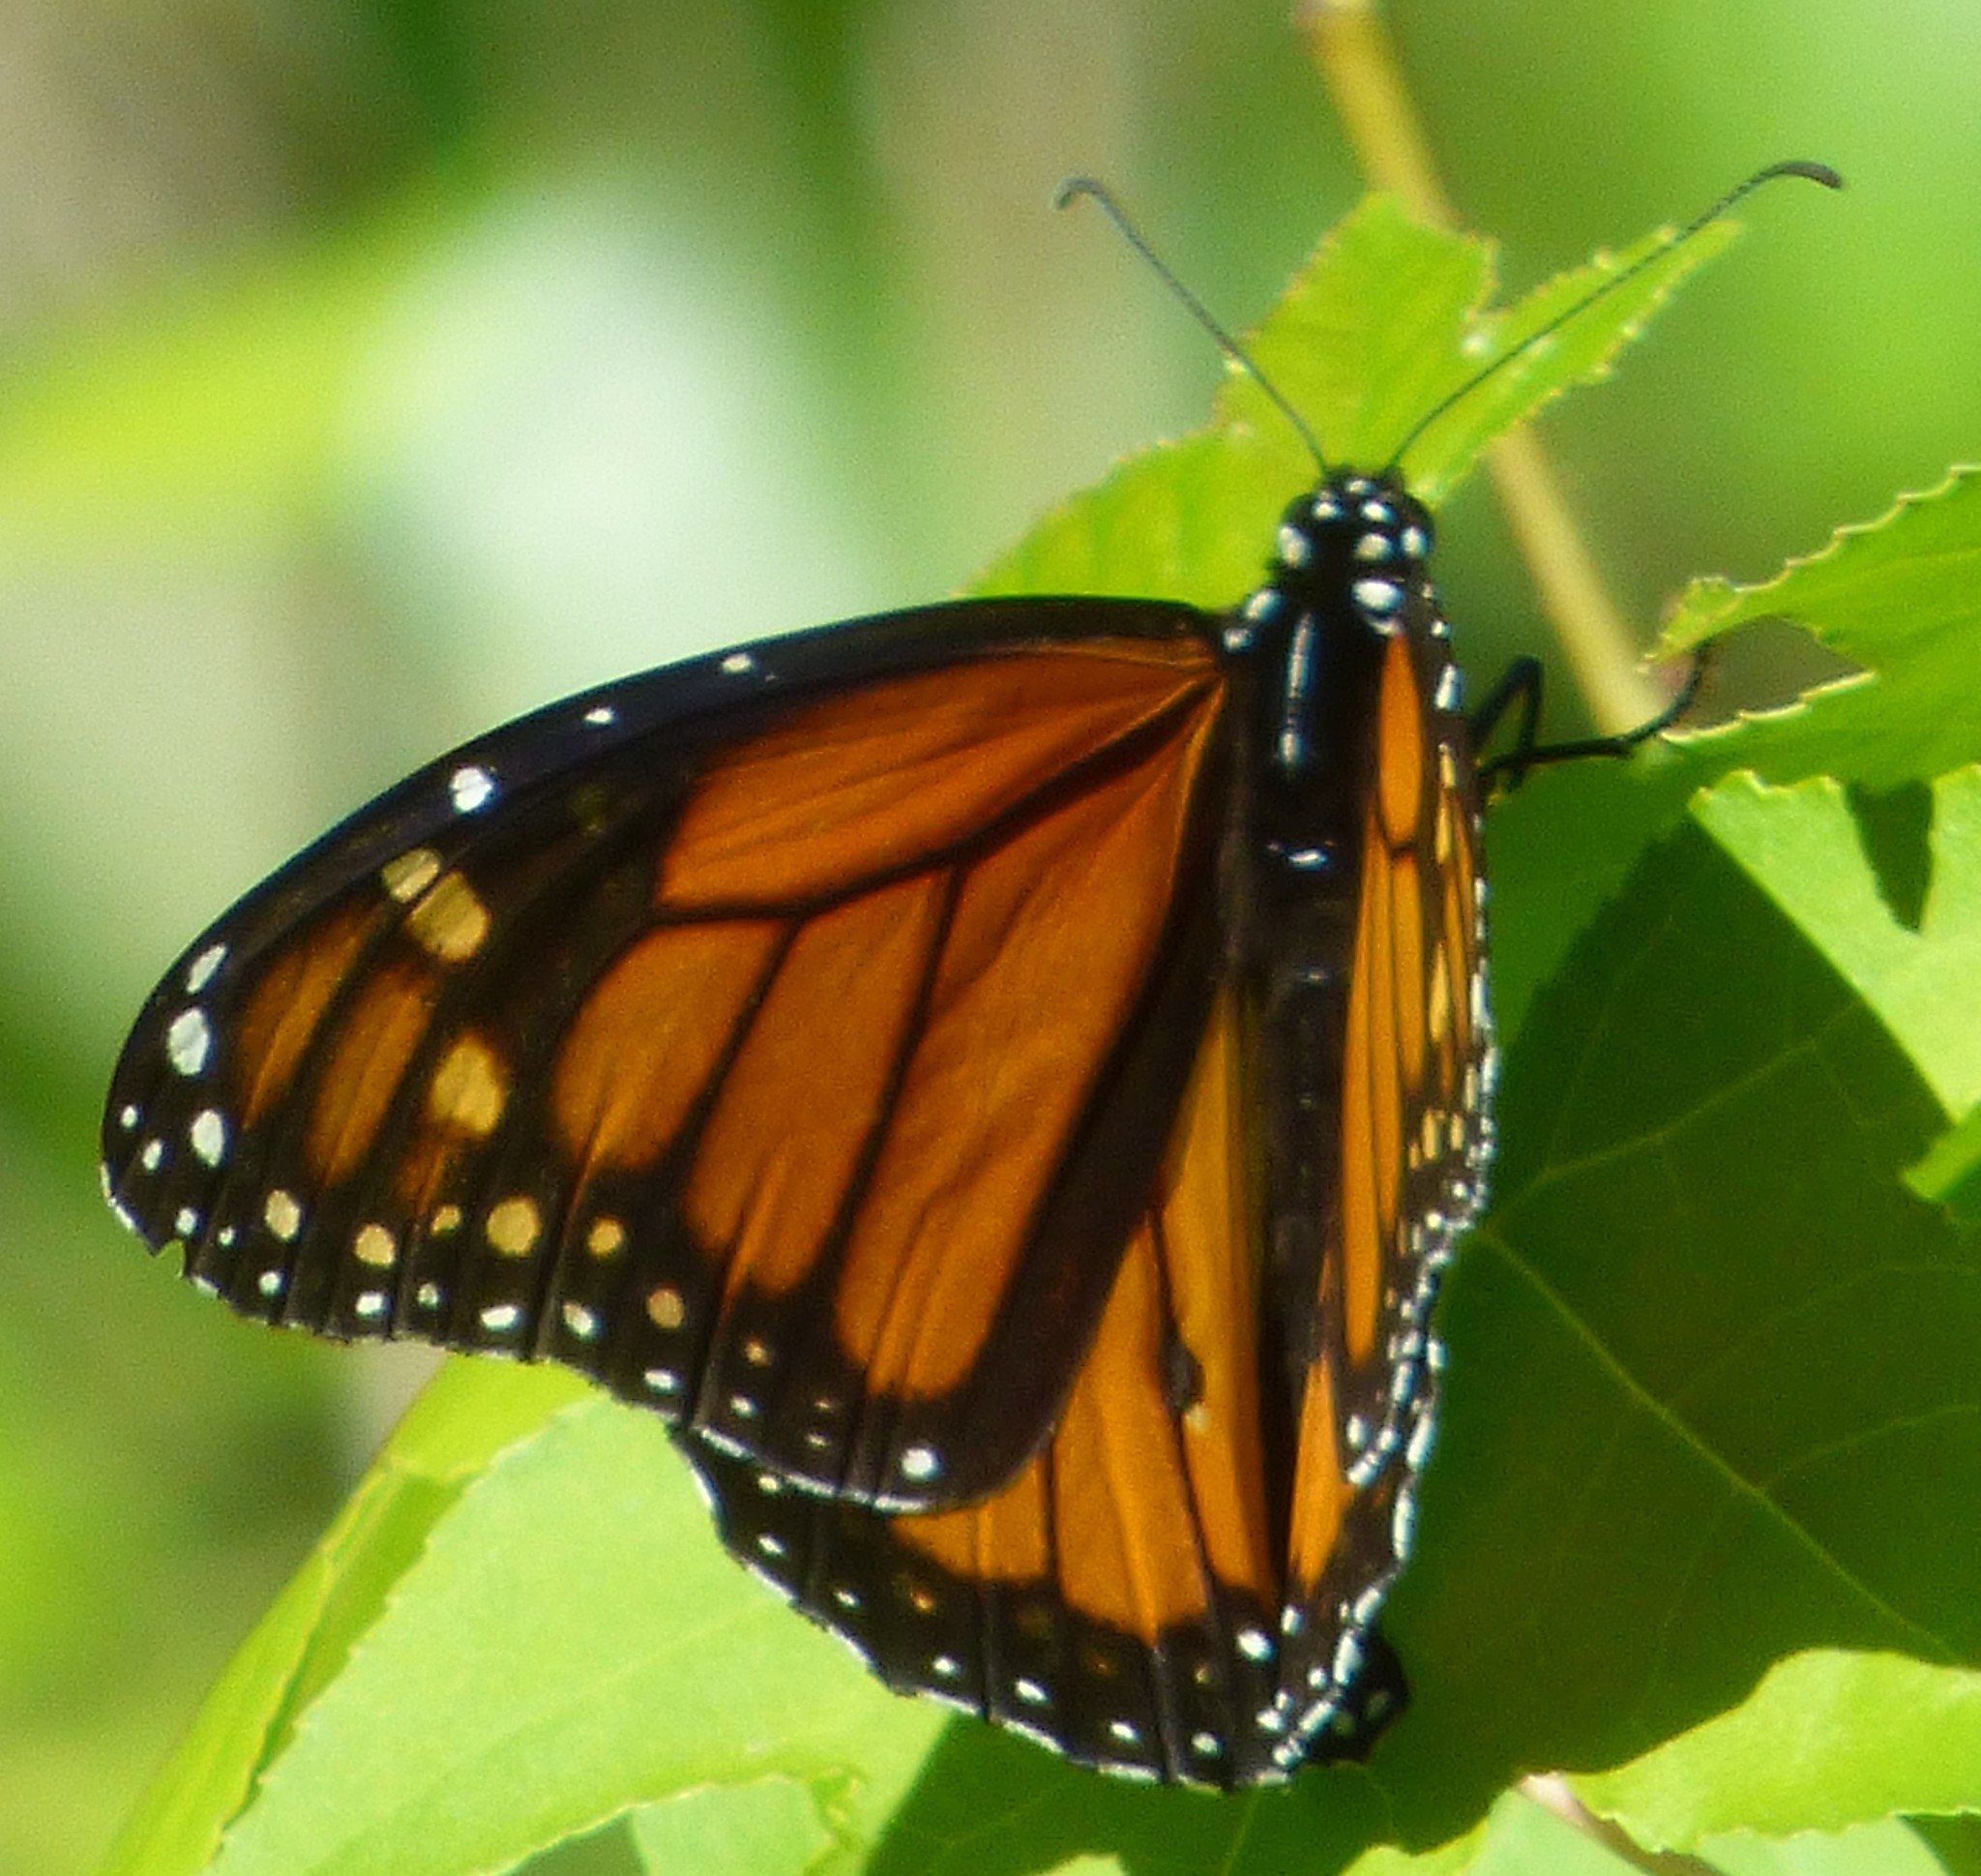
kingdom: Animalia
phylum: Arthropoda
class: Insecta
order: Lepidoptera
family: Nymphalidae
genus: Danaus
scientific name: Danaus plexippus
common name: Monarch
